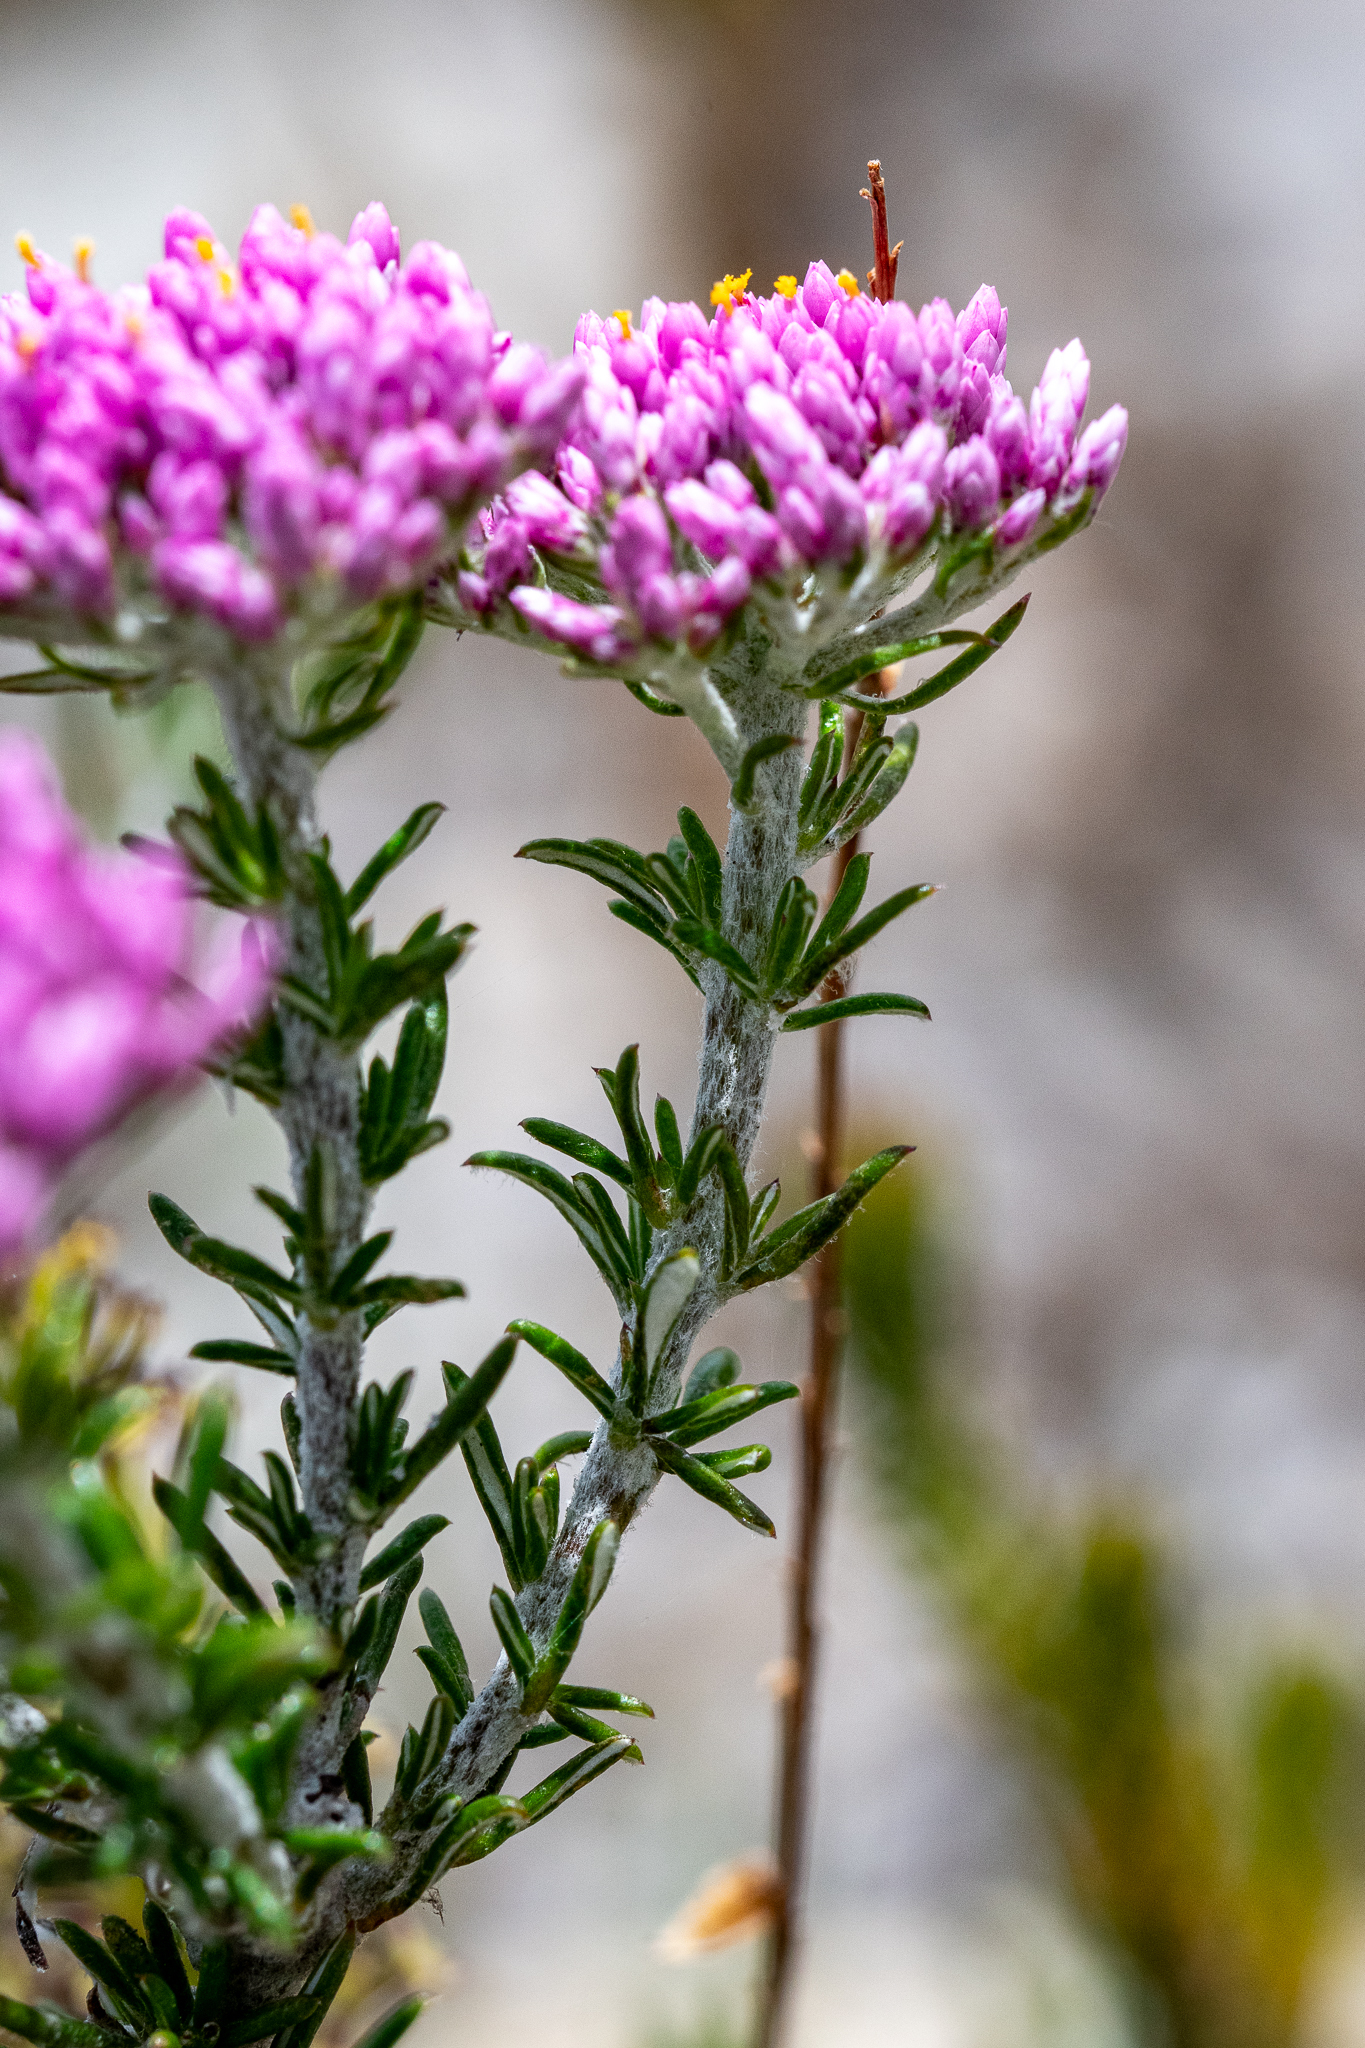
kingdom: Plantae
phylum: Tracheophyta
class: Magnoliopsida
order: Asterales
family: Asteraceae
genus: Metalasia
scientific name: Metalasia erubescens
